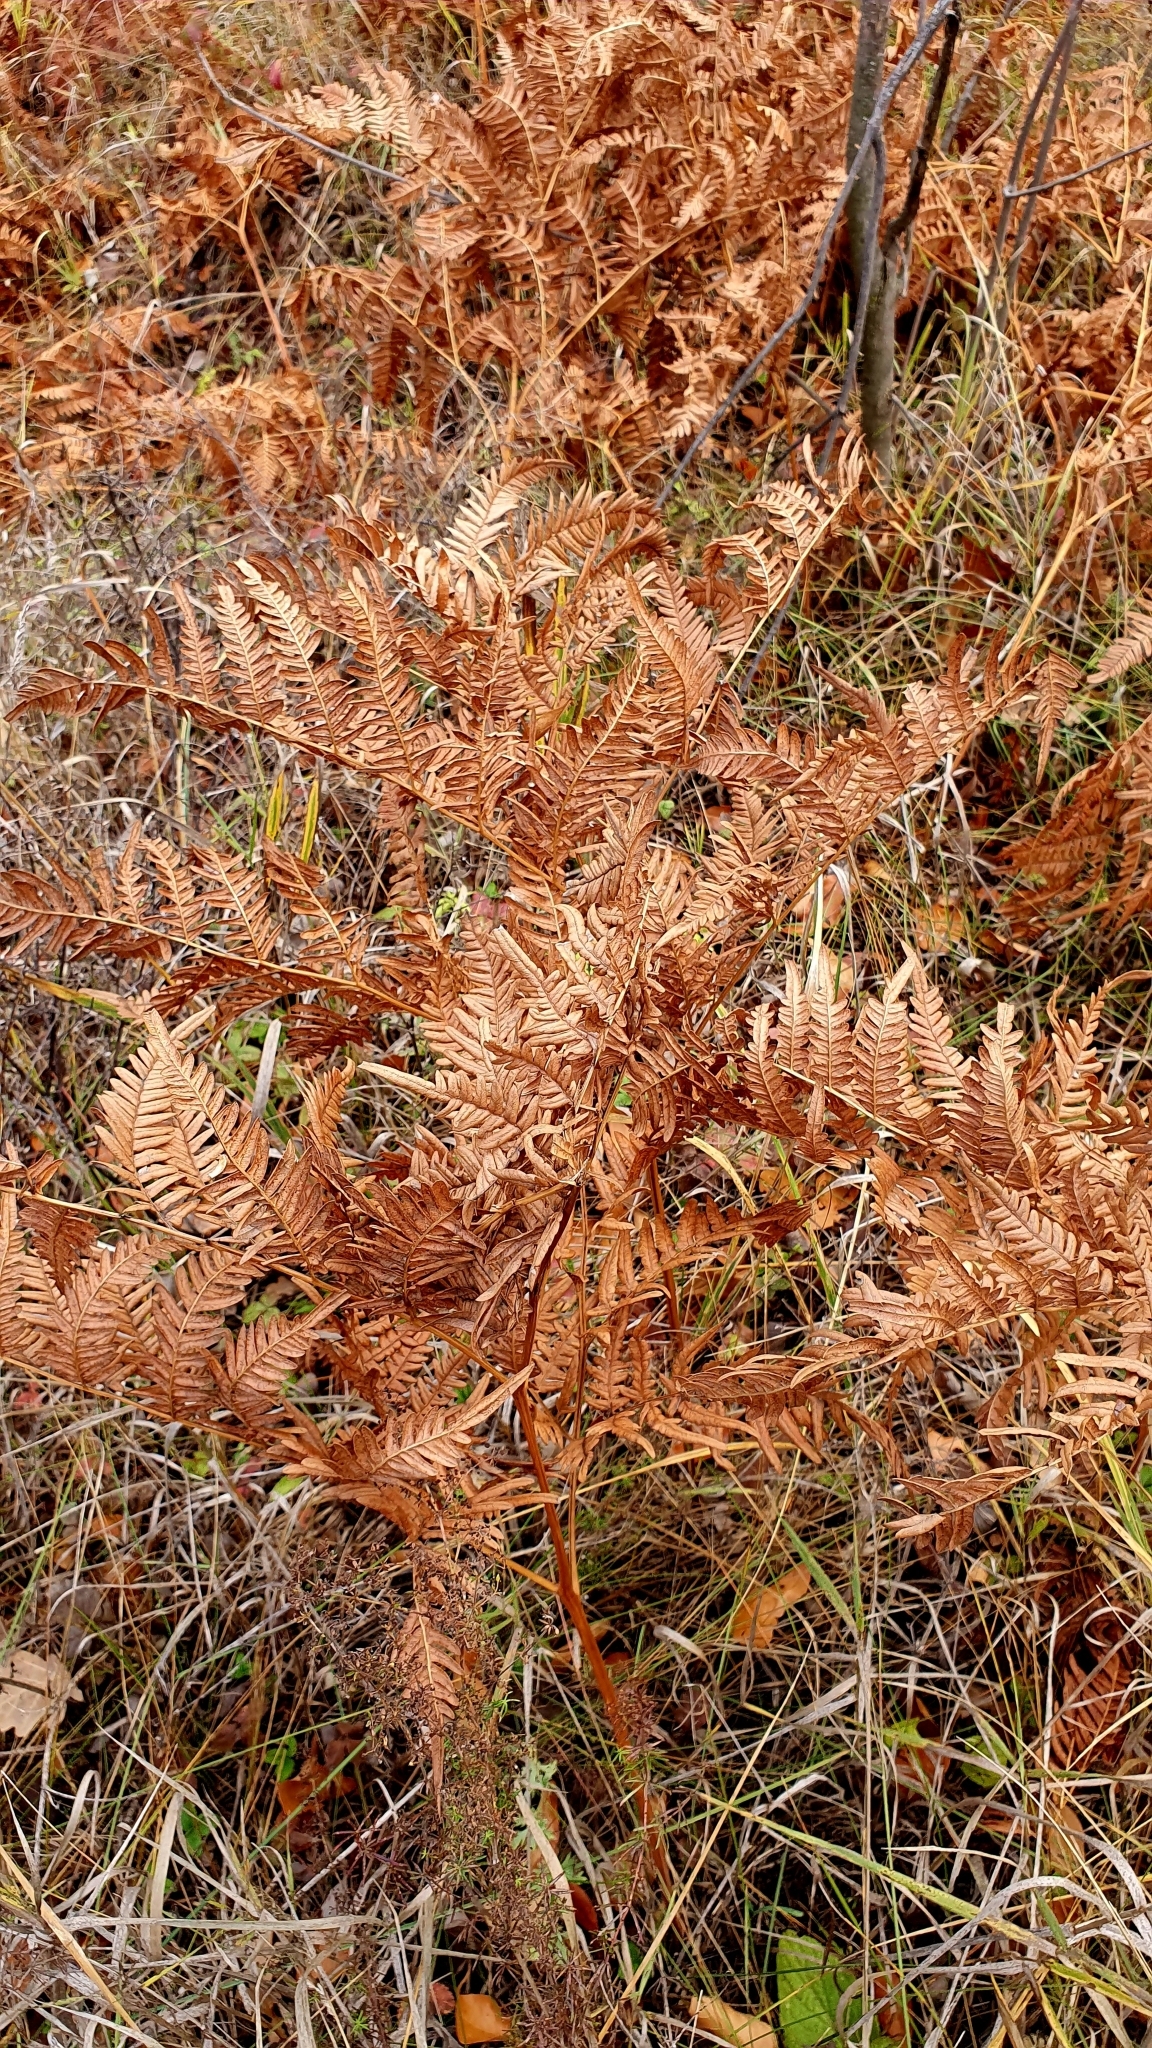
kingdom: Plantae
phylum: Tracheophyta
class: Polypodiopsida
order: Polypodiales
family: Dennstaedtiaceae
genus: Pteridium
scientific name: Pteridium aquilinum
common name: Bracken
